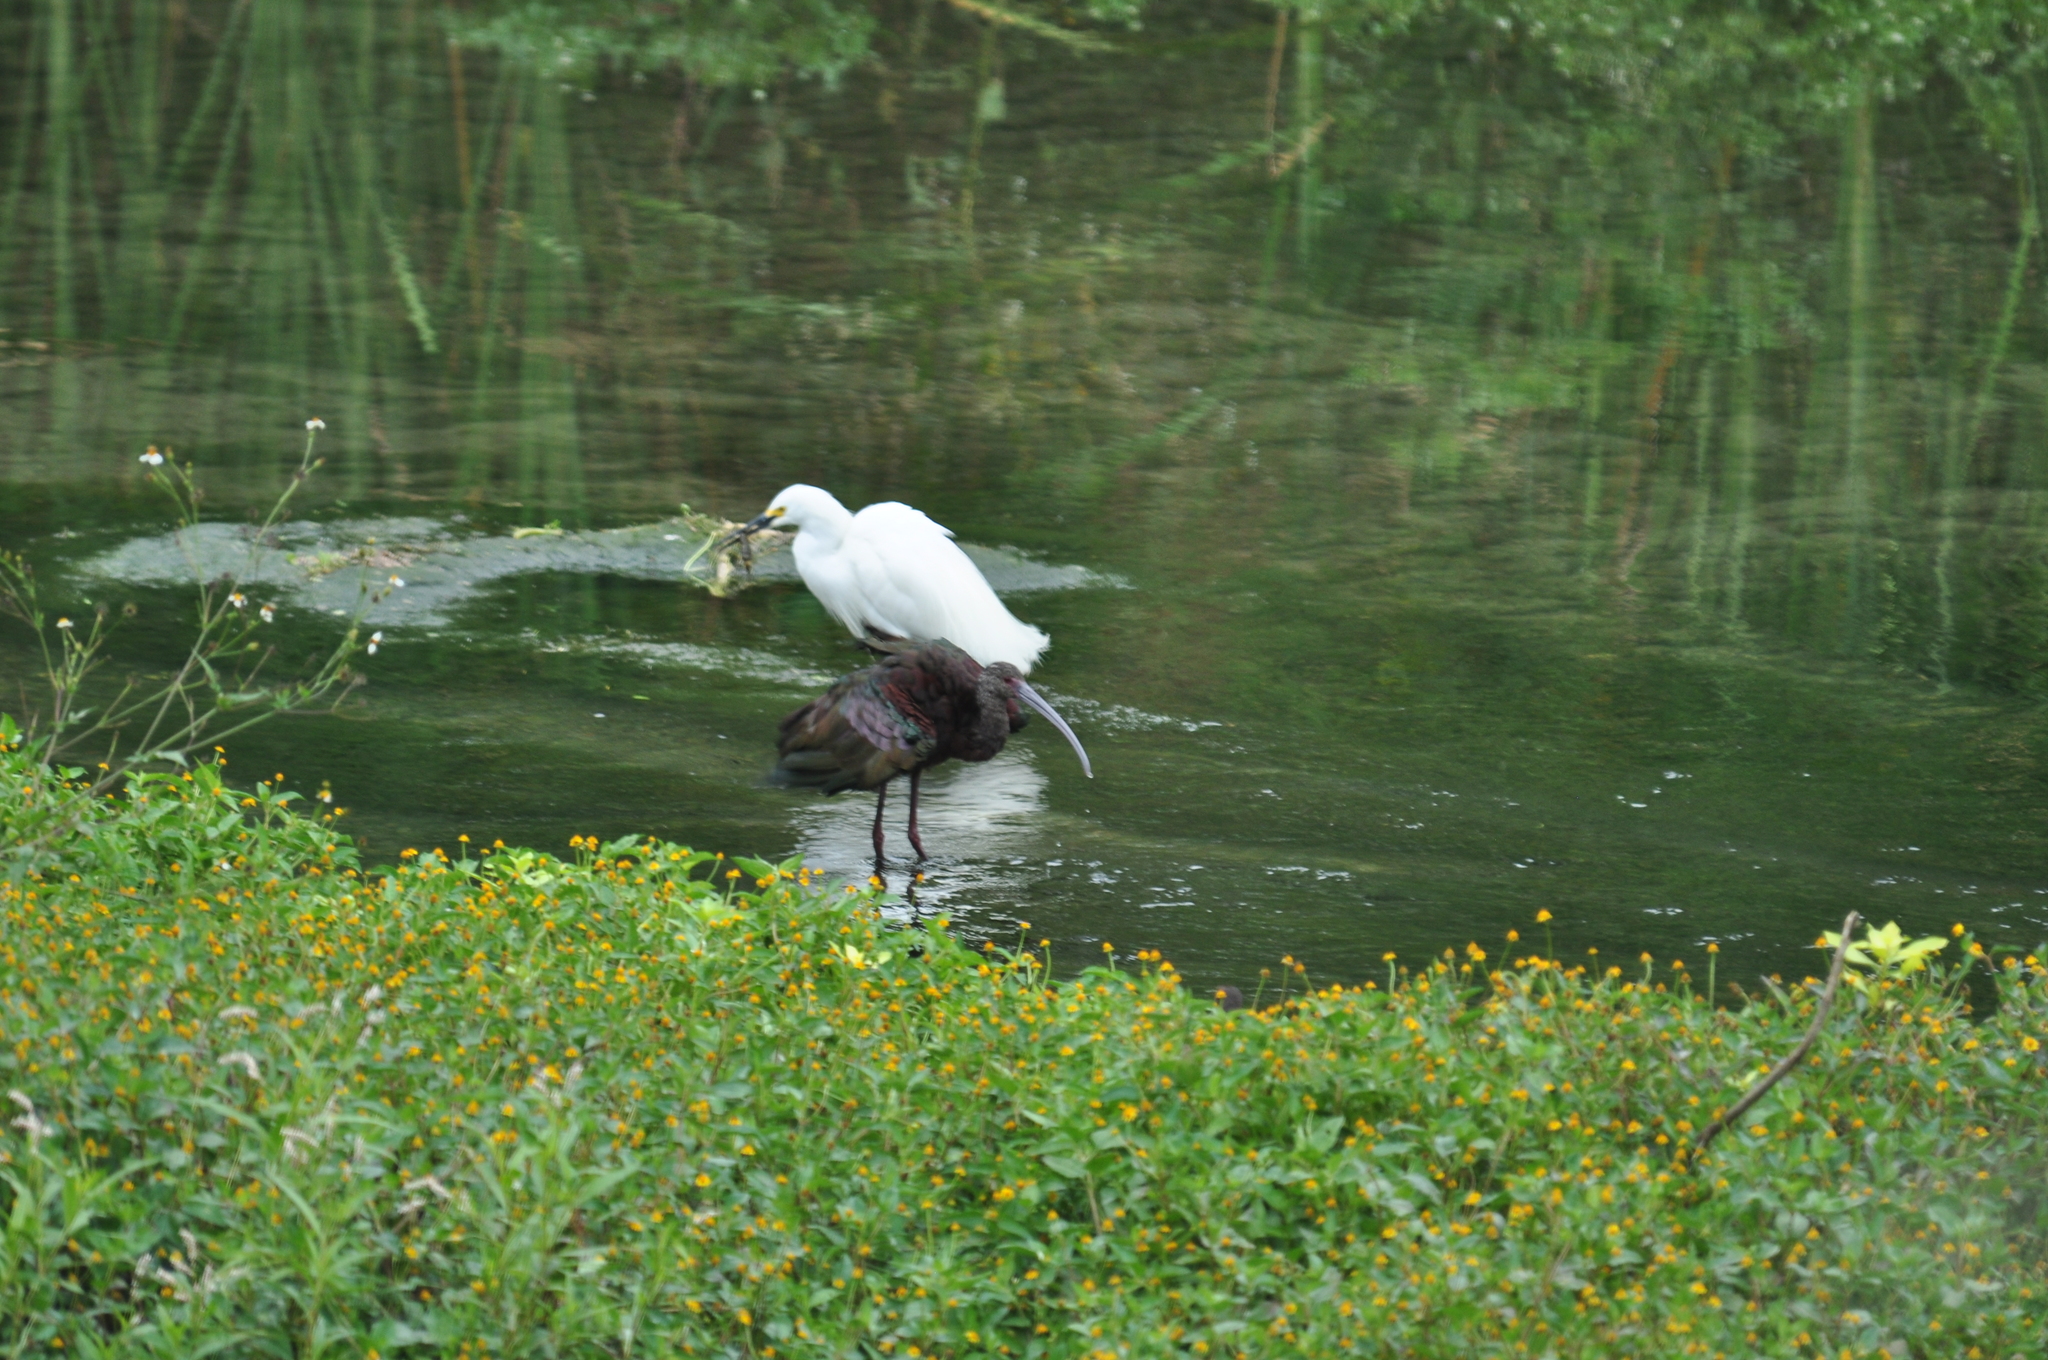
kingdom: Animalia
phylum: Chordata
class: Aves
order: Pelecaniformes
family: Threskiornithidae
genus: Plegadis
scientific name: Plegadis chihi
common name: White-faced ibis
